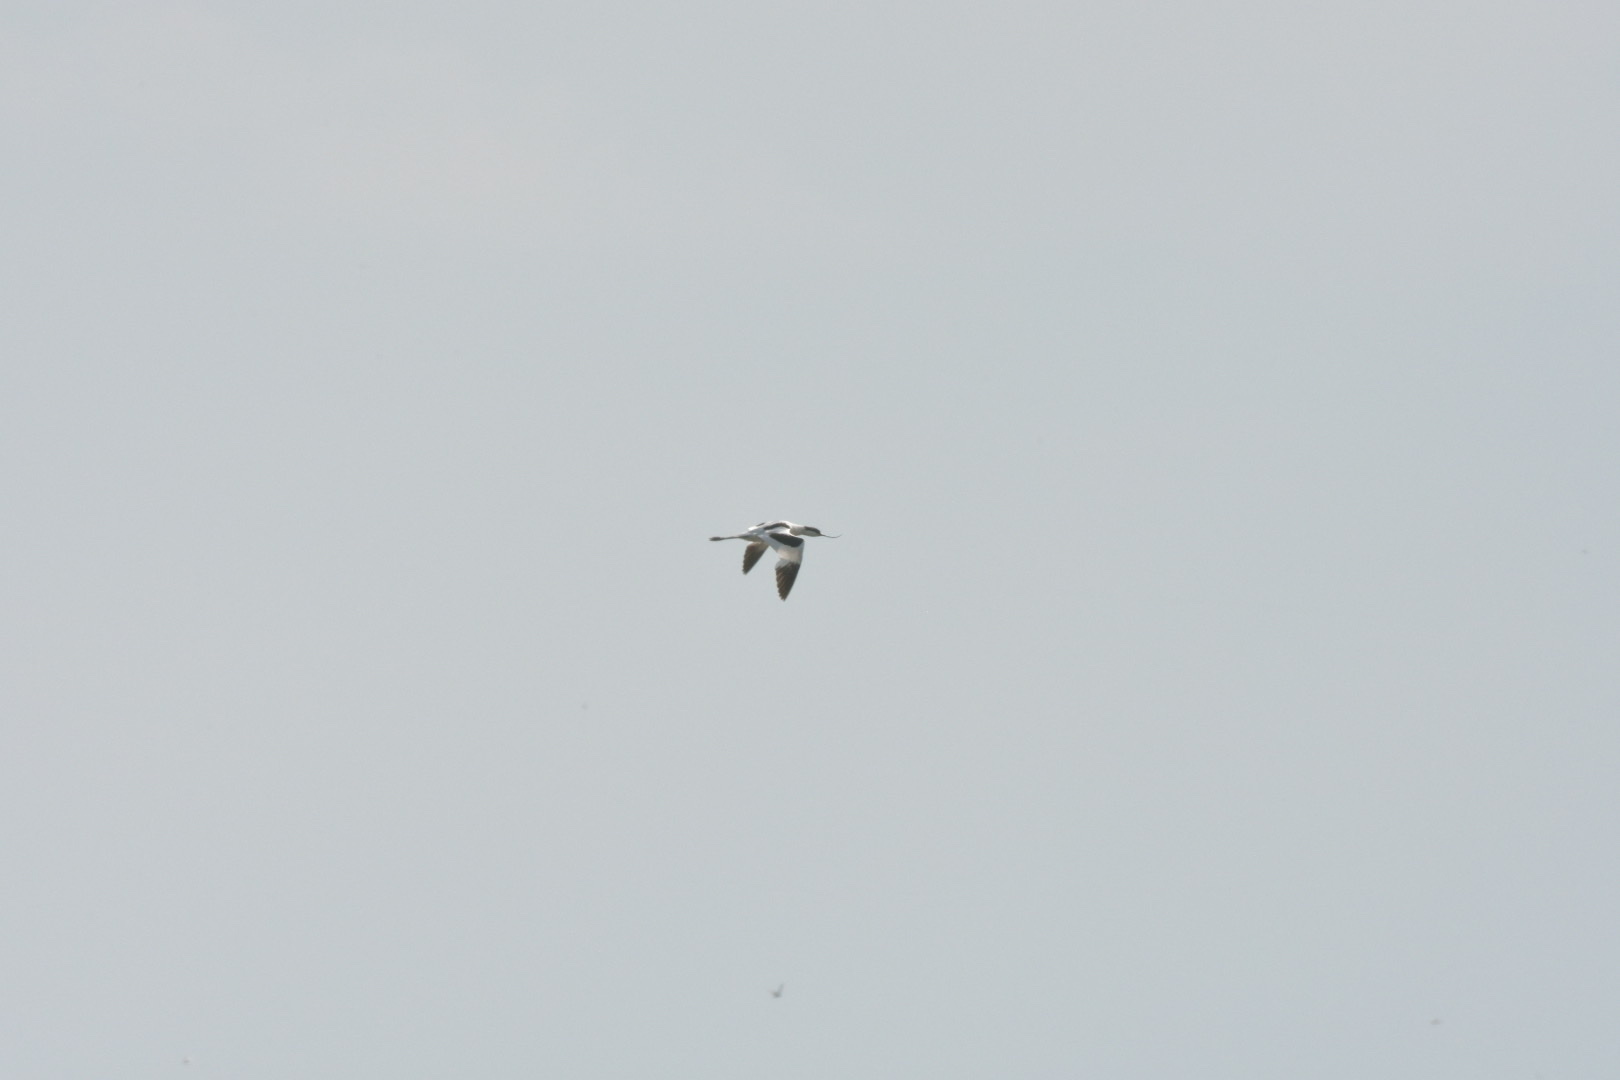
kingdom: Animalia
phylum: Chordata
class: Aves
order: Charadriiformes
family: Recurvirostridae
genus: Recurvirostra
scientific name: Recurvirostra avosetta
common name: Pied avocet
